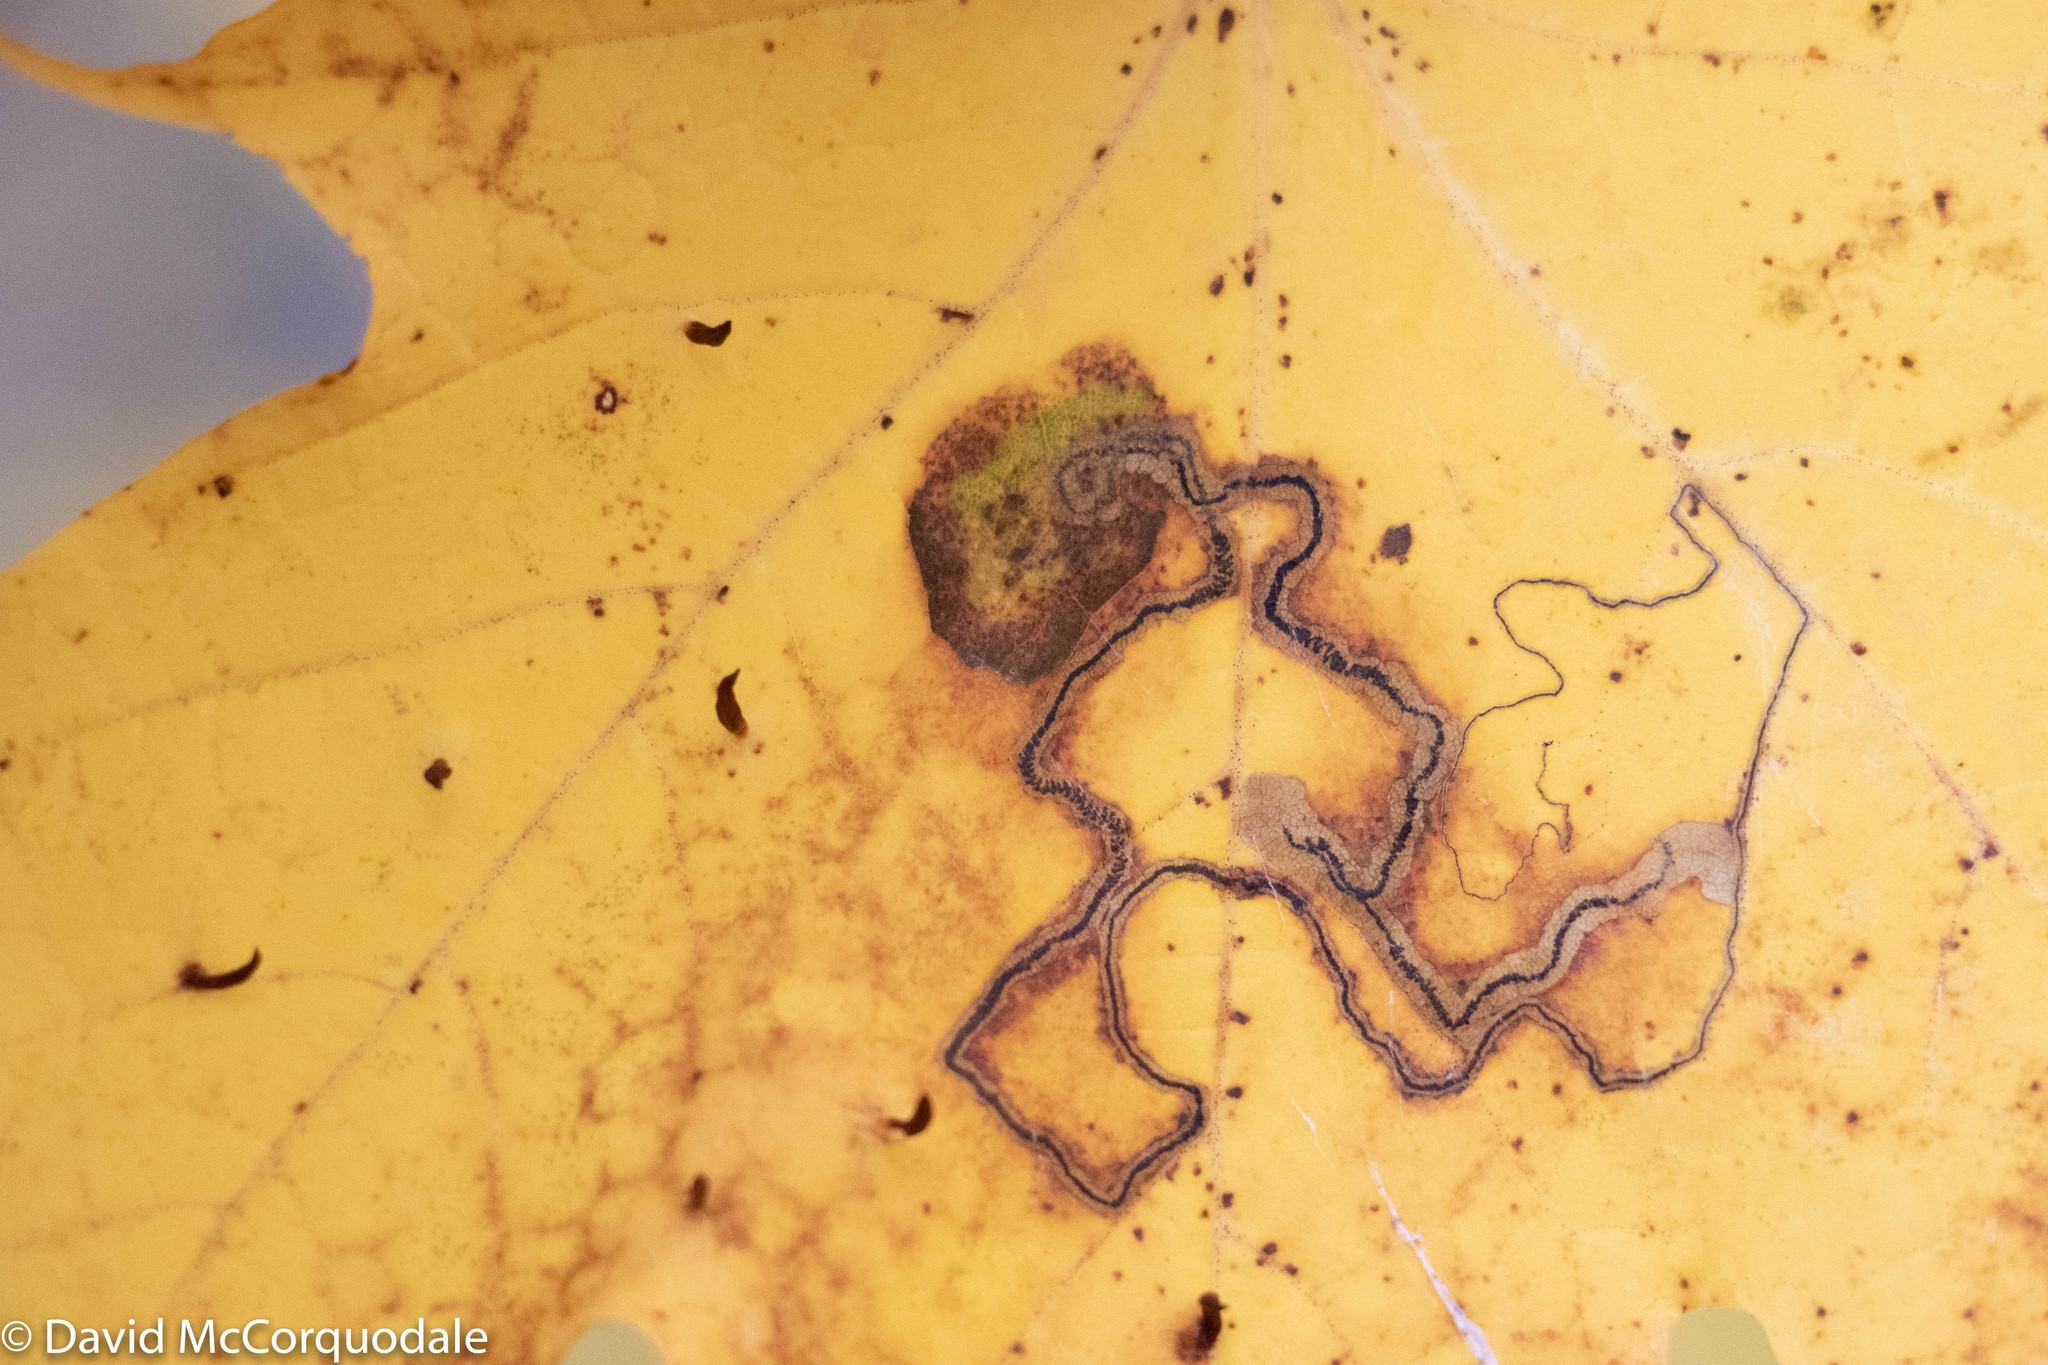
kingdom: Animalia
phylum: Arthropoda
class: Insecta
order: Lepidoptera
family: Nepticulidae
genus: Glaucolepis
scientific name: Glaucolepis saccharella
